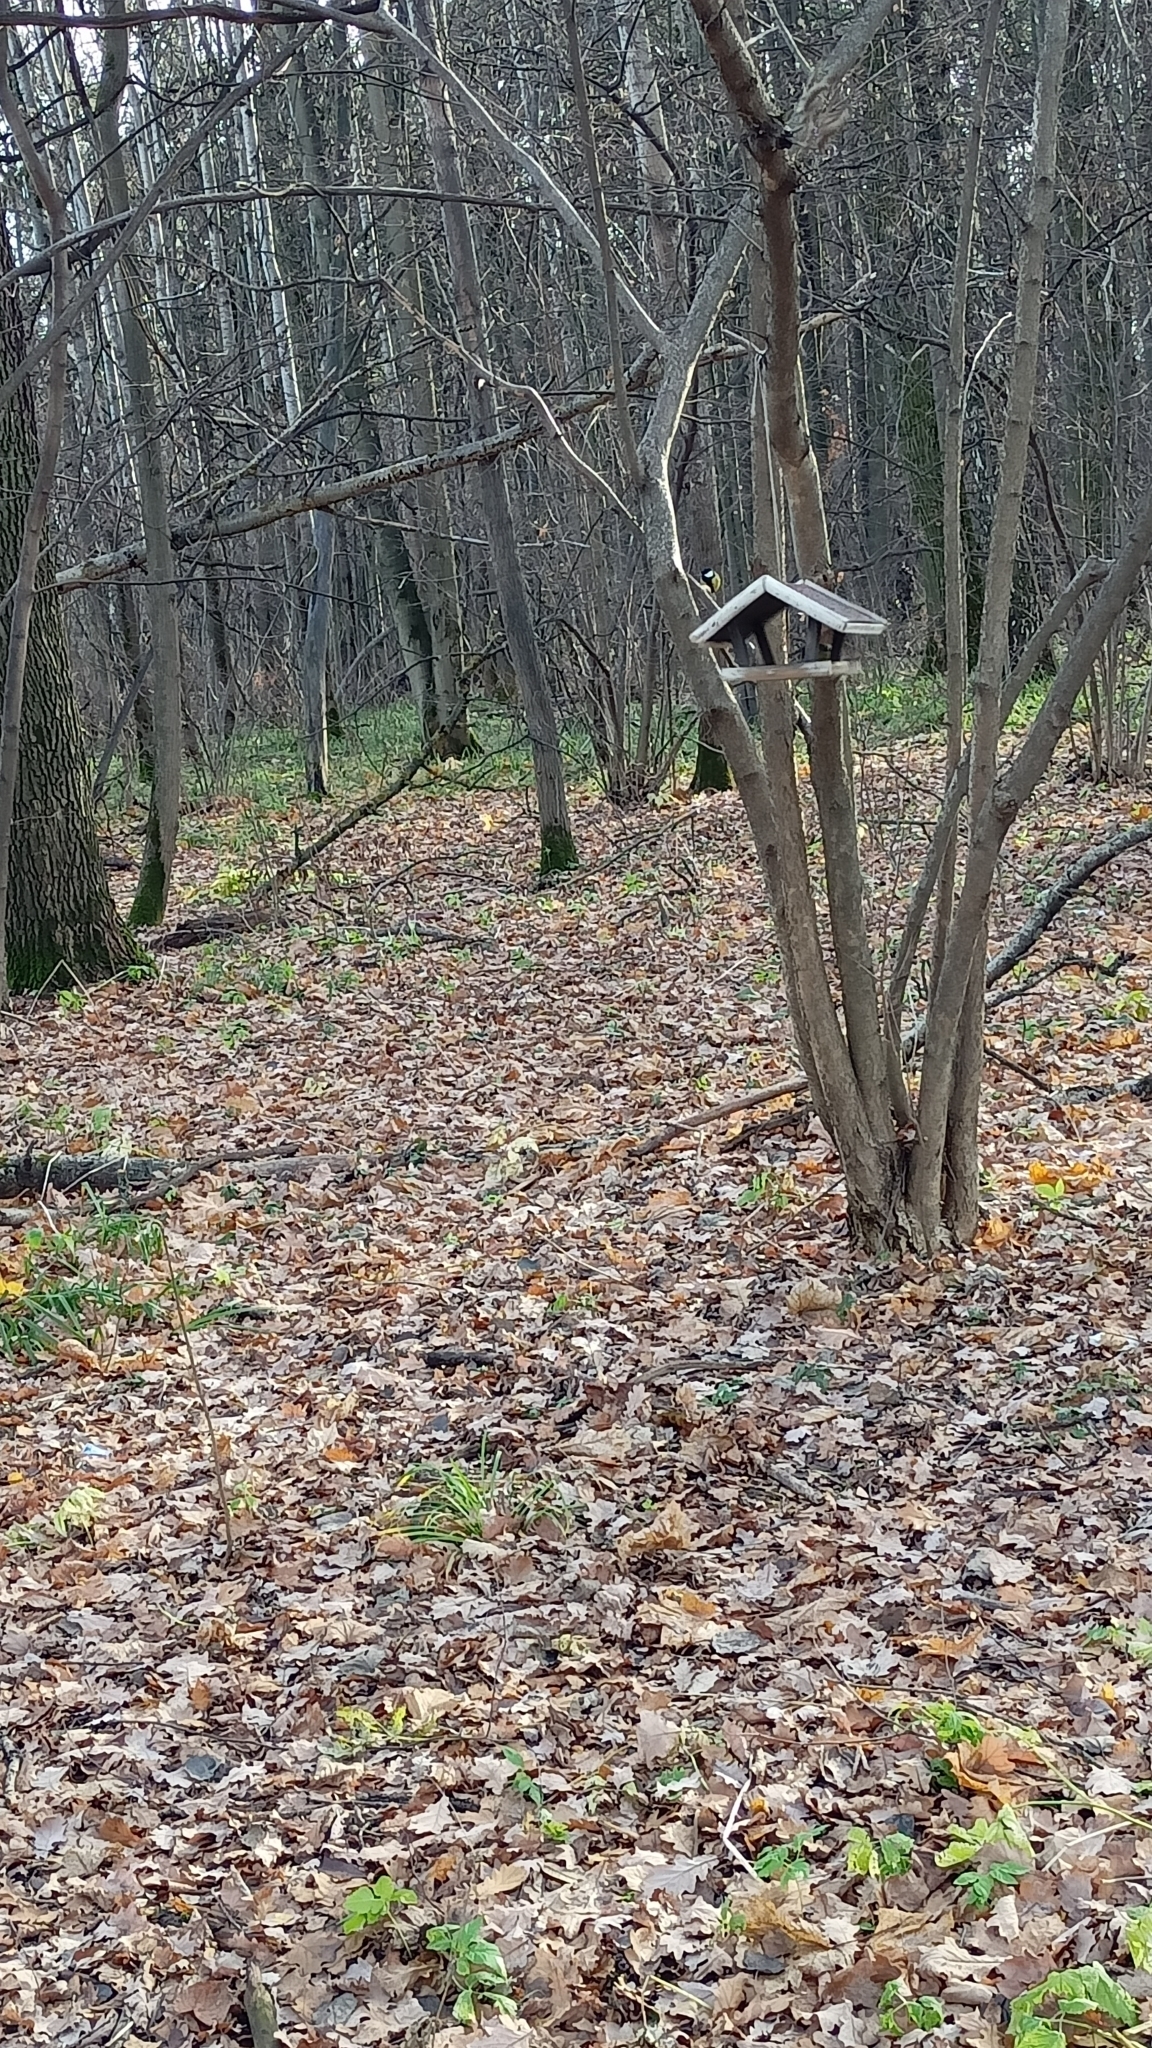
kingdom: Animalia
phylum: Chordata
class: Aves
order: Passeriformes
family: Paridae
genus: Parus
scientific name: Parus major
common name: Great tit
